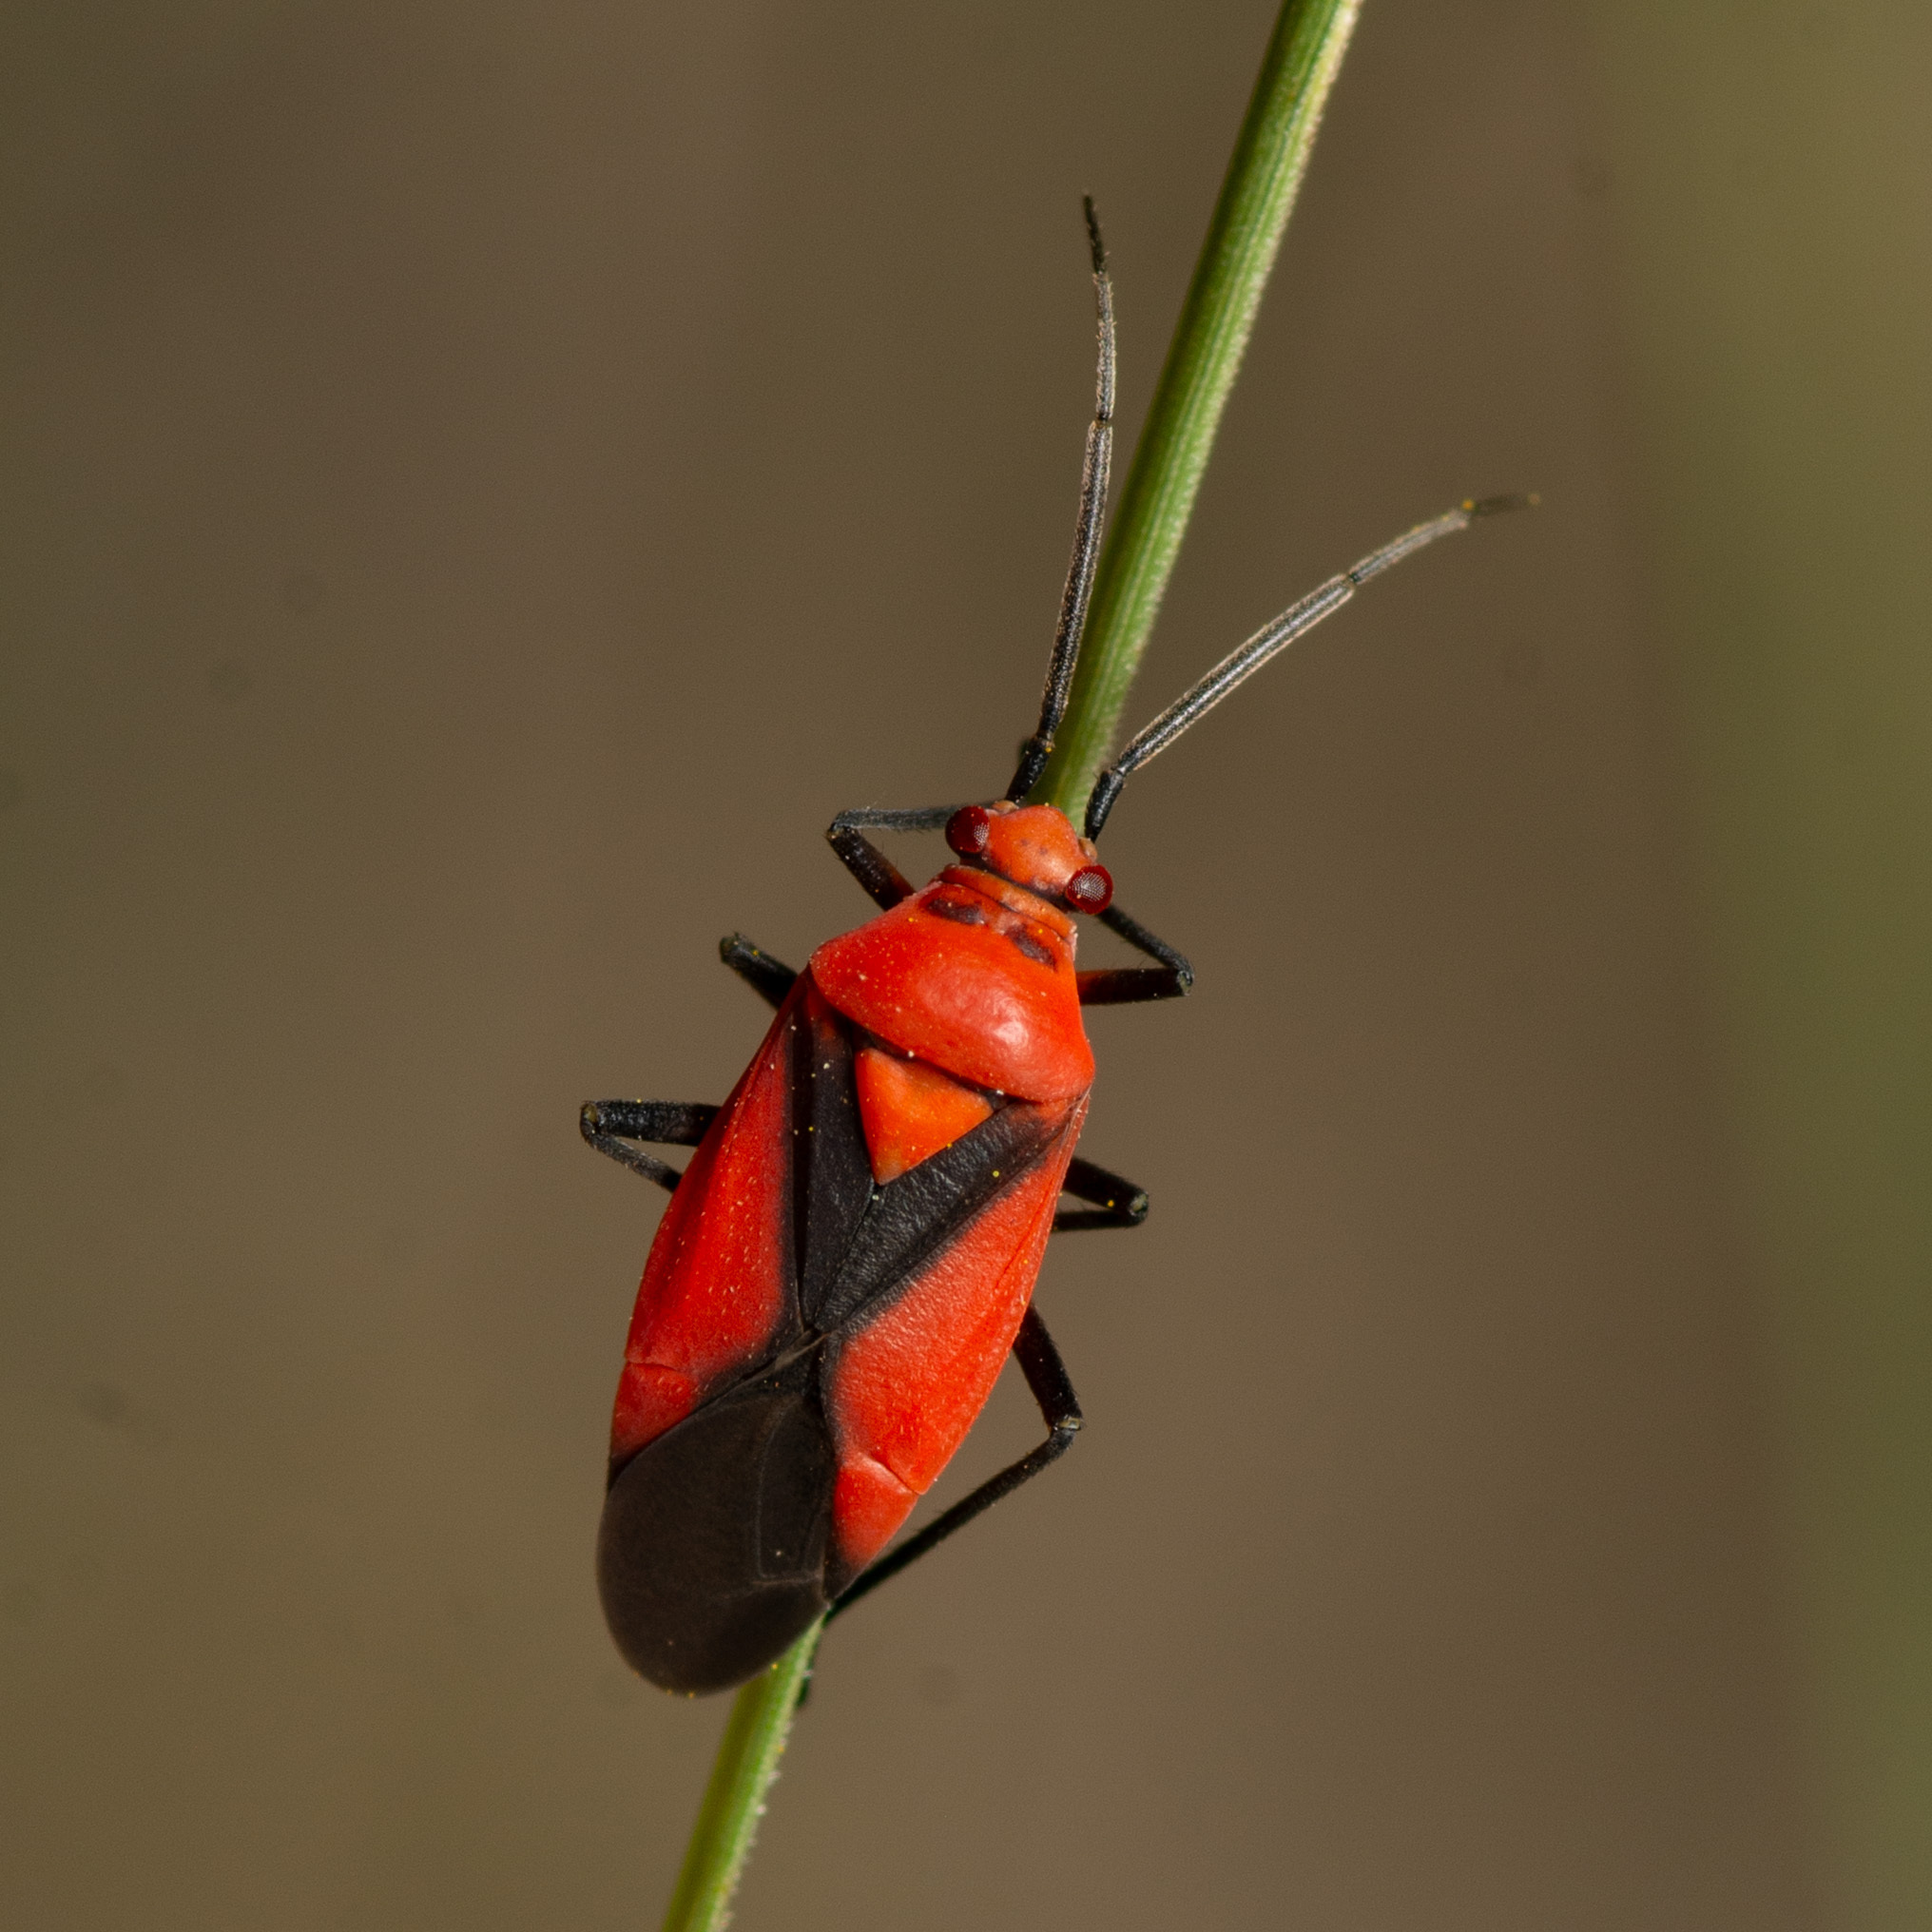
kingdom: Animalia
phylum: Arthropoda
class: Insecta
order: Hemiptera
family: Miridae
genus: Oncerometopus
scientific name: Oncerometopus nigriclavus
